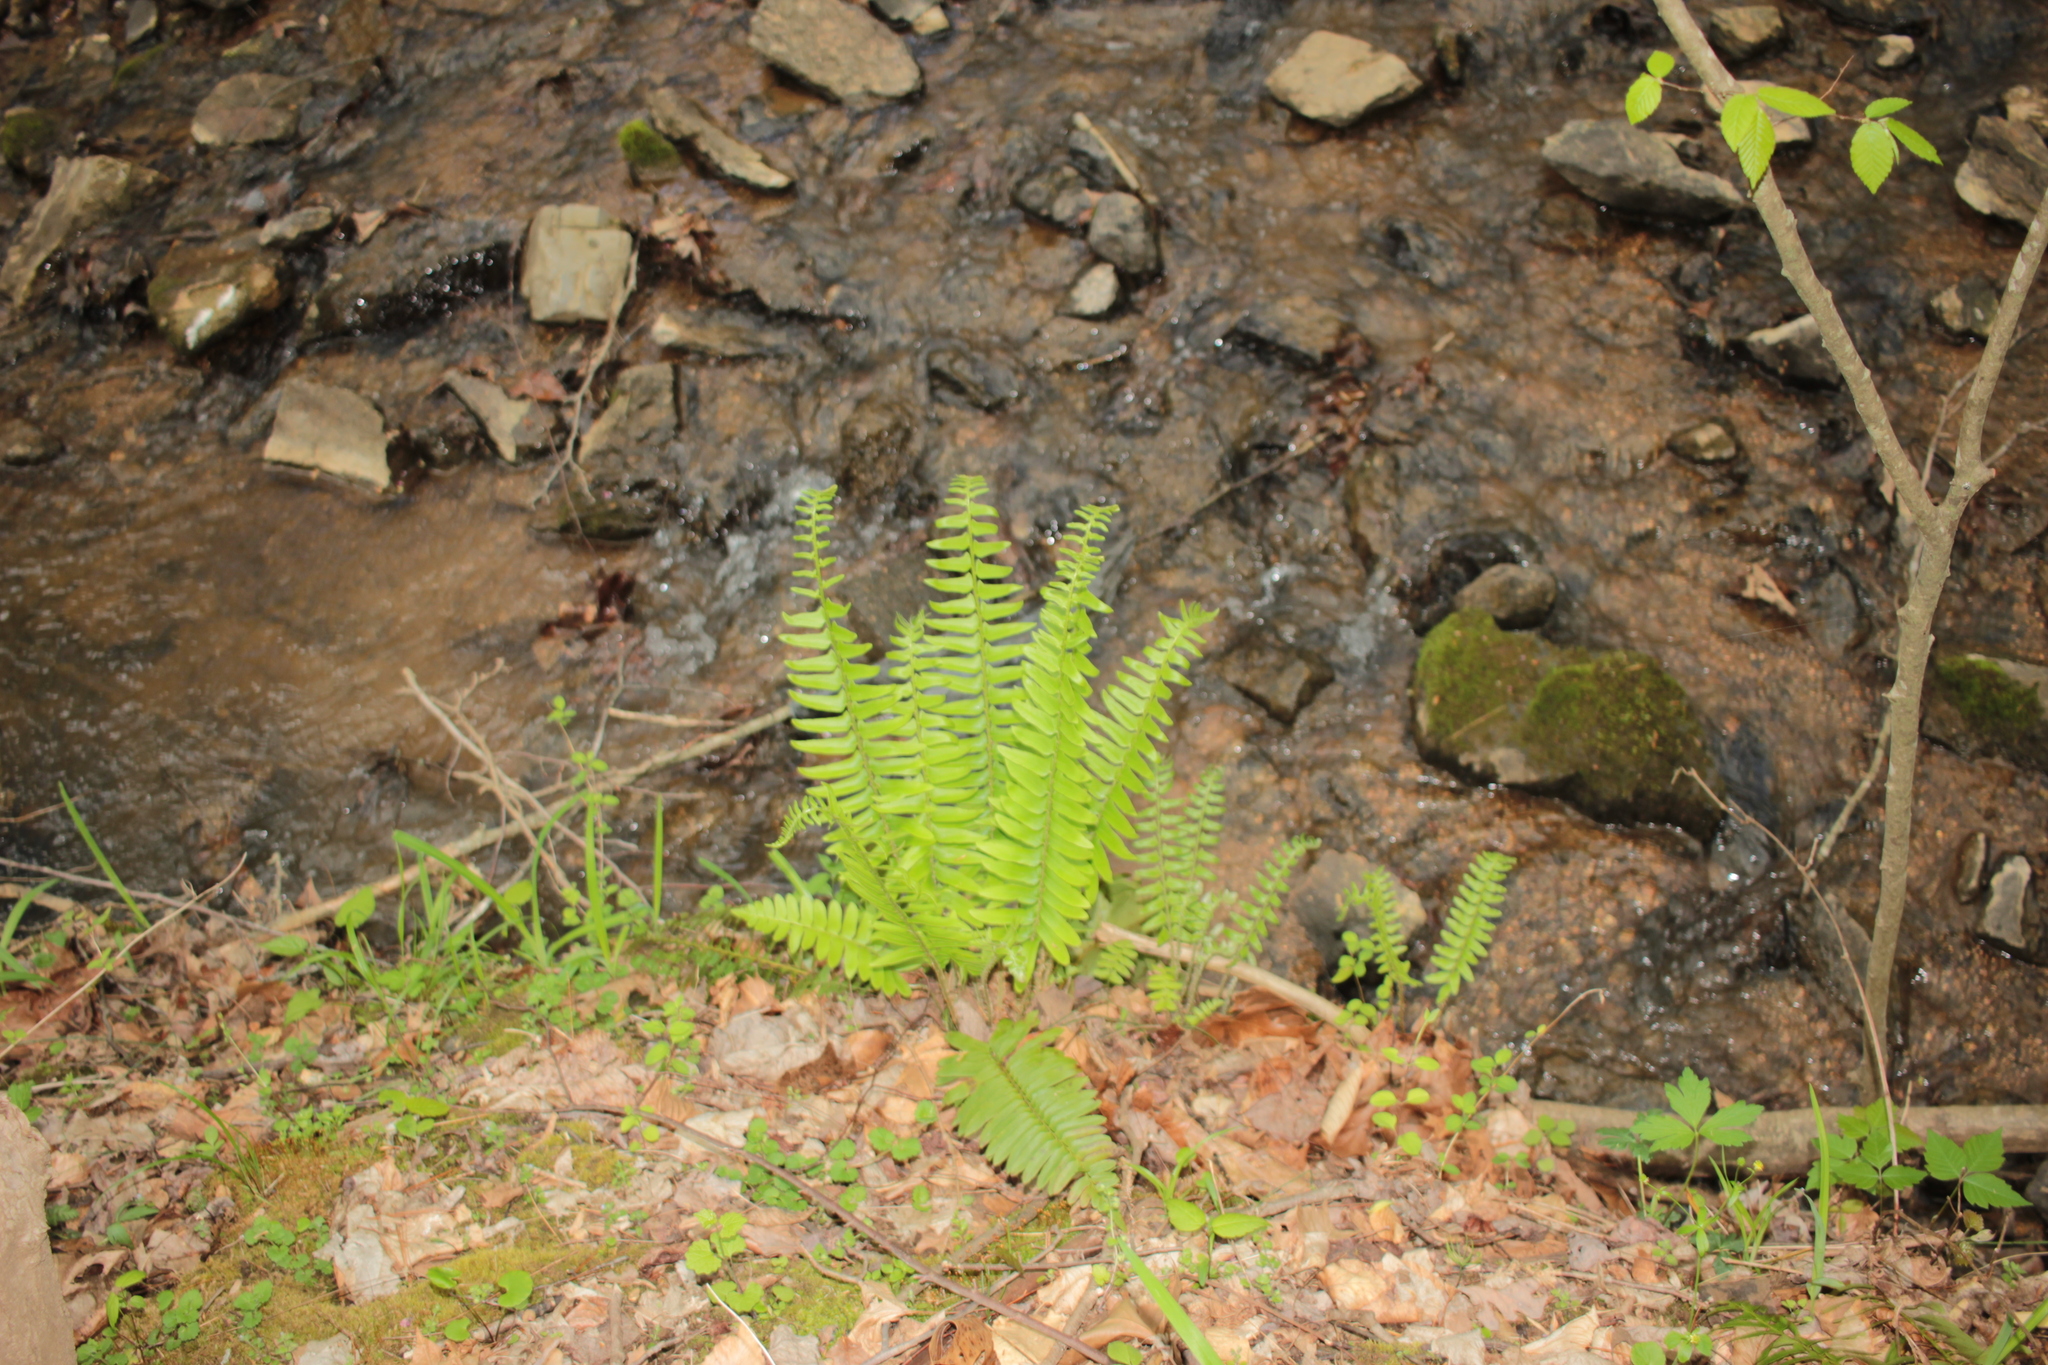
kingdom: Plantae
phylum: Tracheophyta
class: Polypodiopsida
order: Polypodiales
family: Dryopteridaceae
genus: Polystichum
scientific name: Polystichum acrostichoides
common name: Christmas fern
